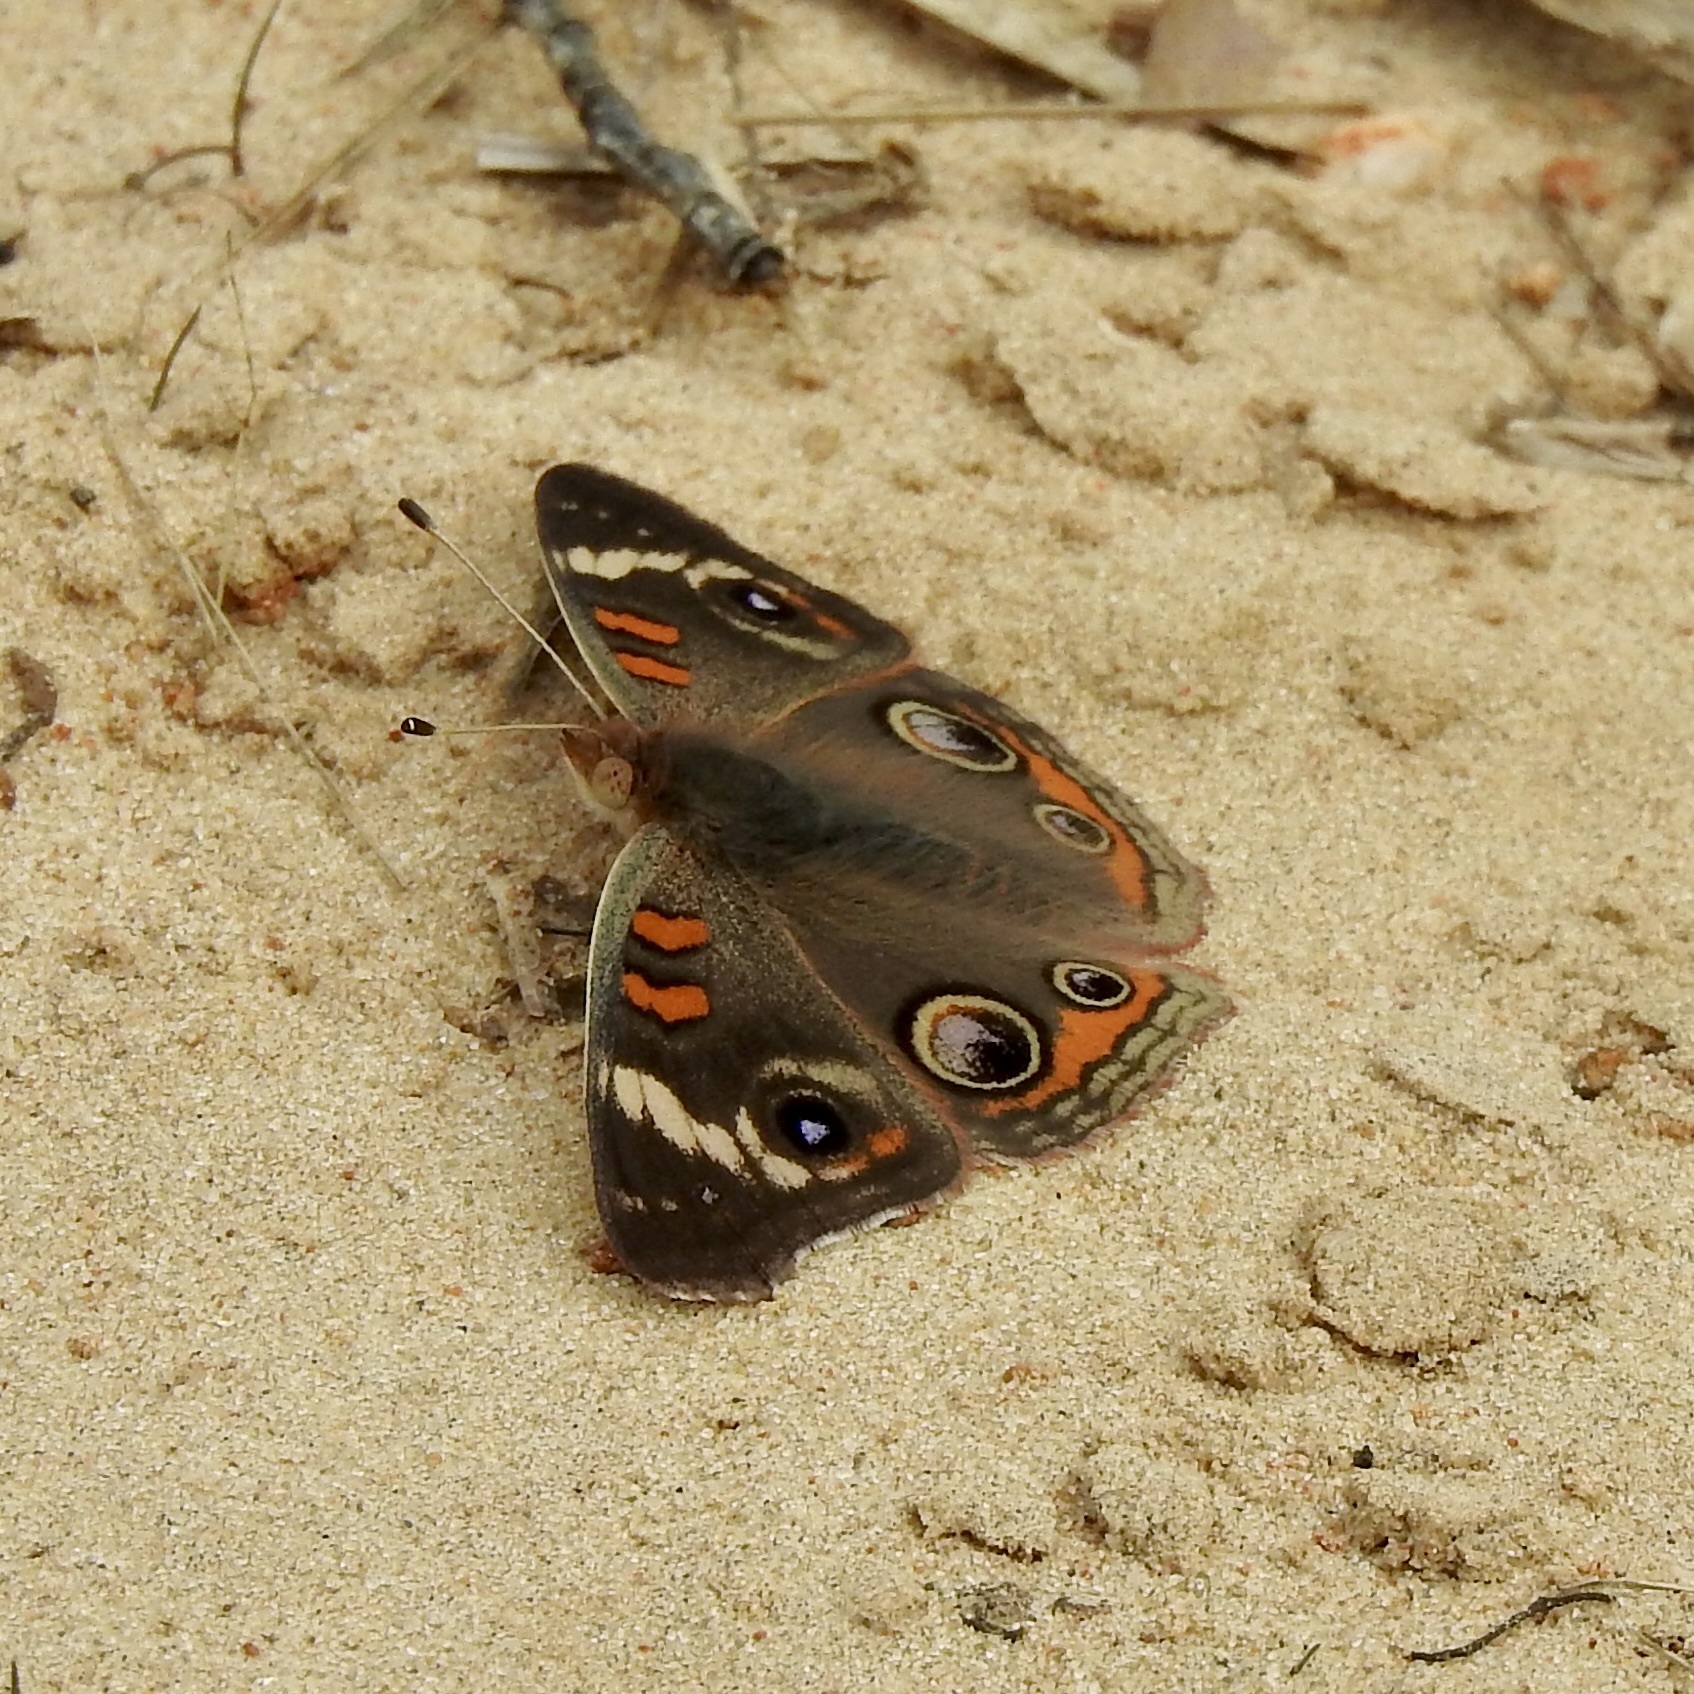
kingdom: Animalia
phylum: Arthropoda
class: Insecta
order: Lepidoptera
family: Nymphalidae
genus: Junonia
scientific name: Junonia coenia
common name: Common buckeye
